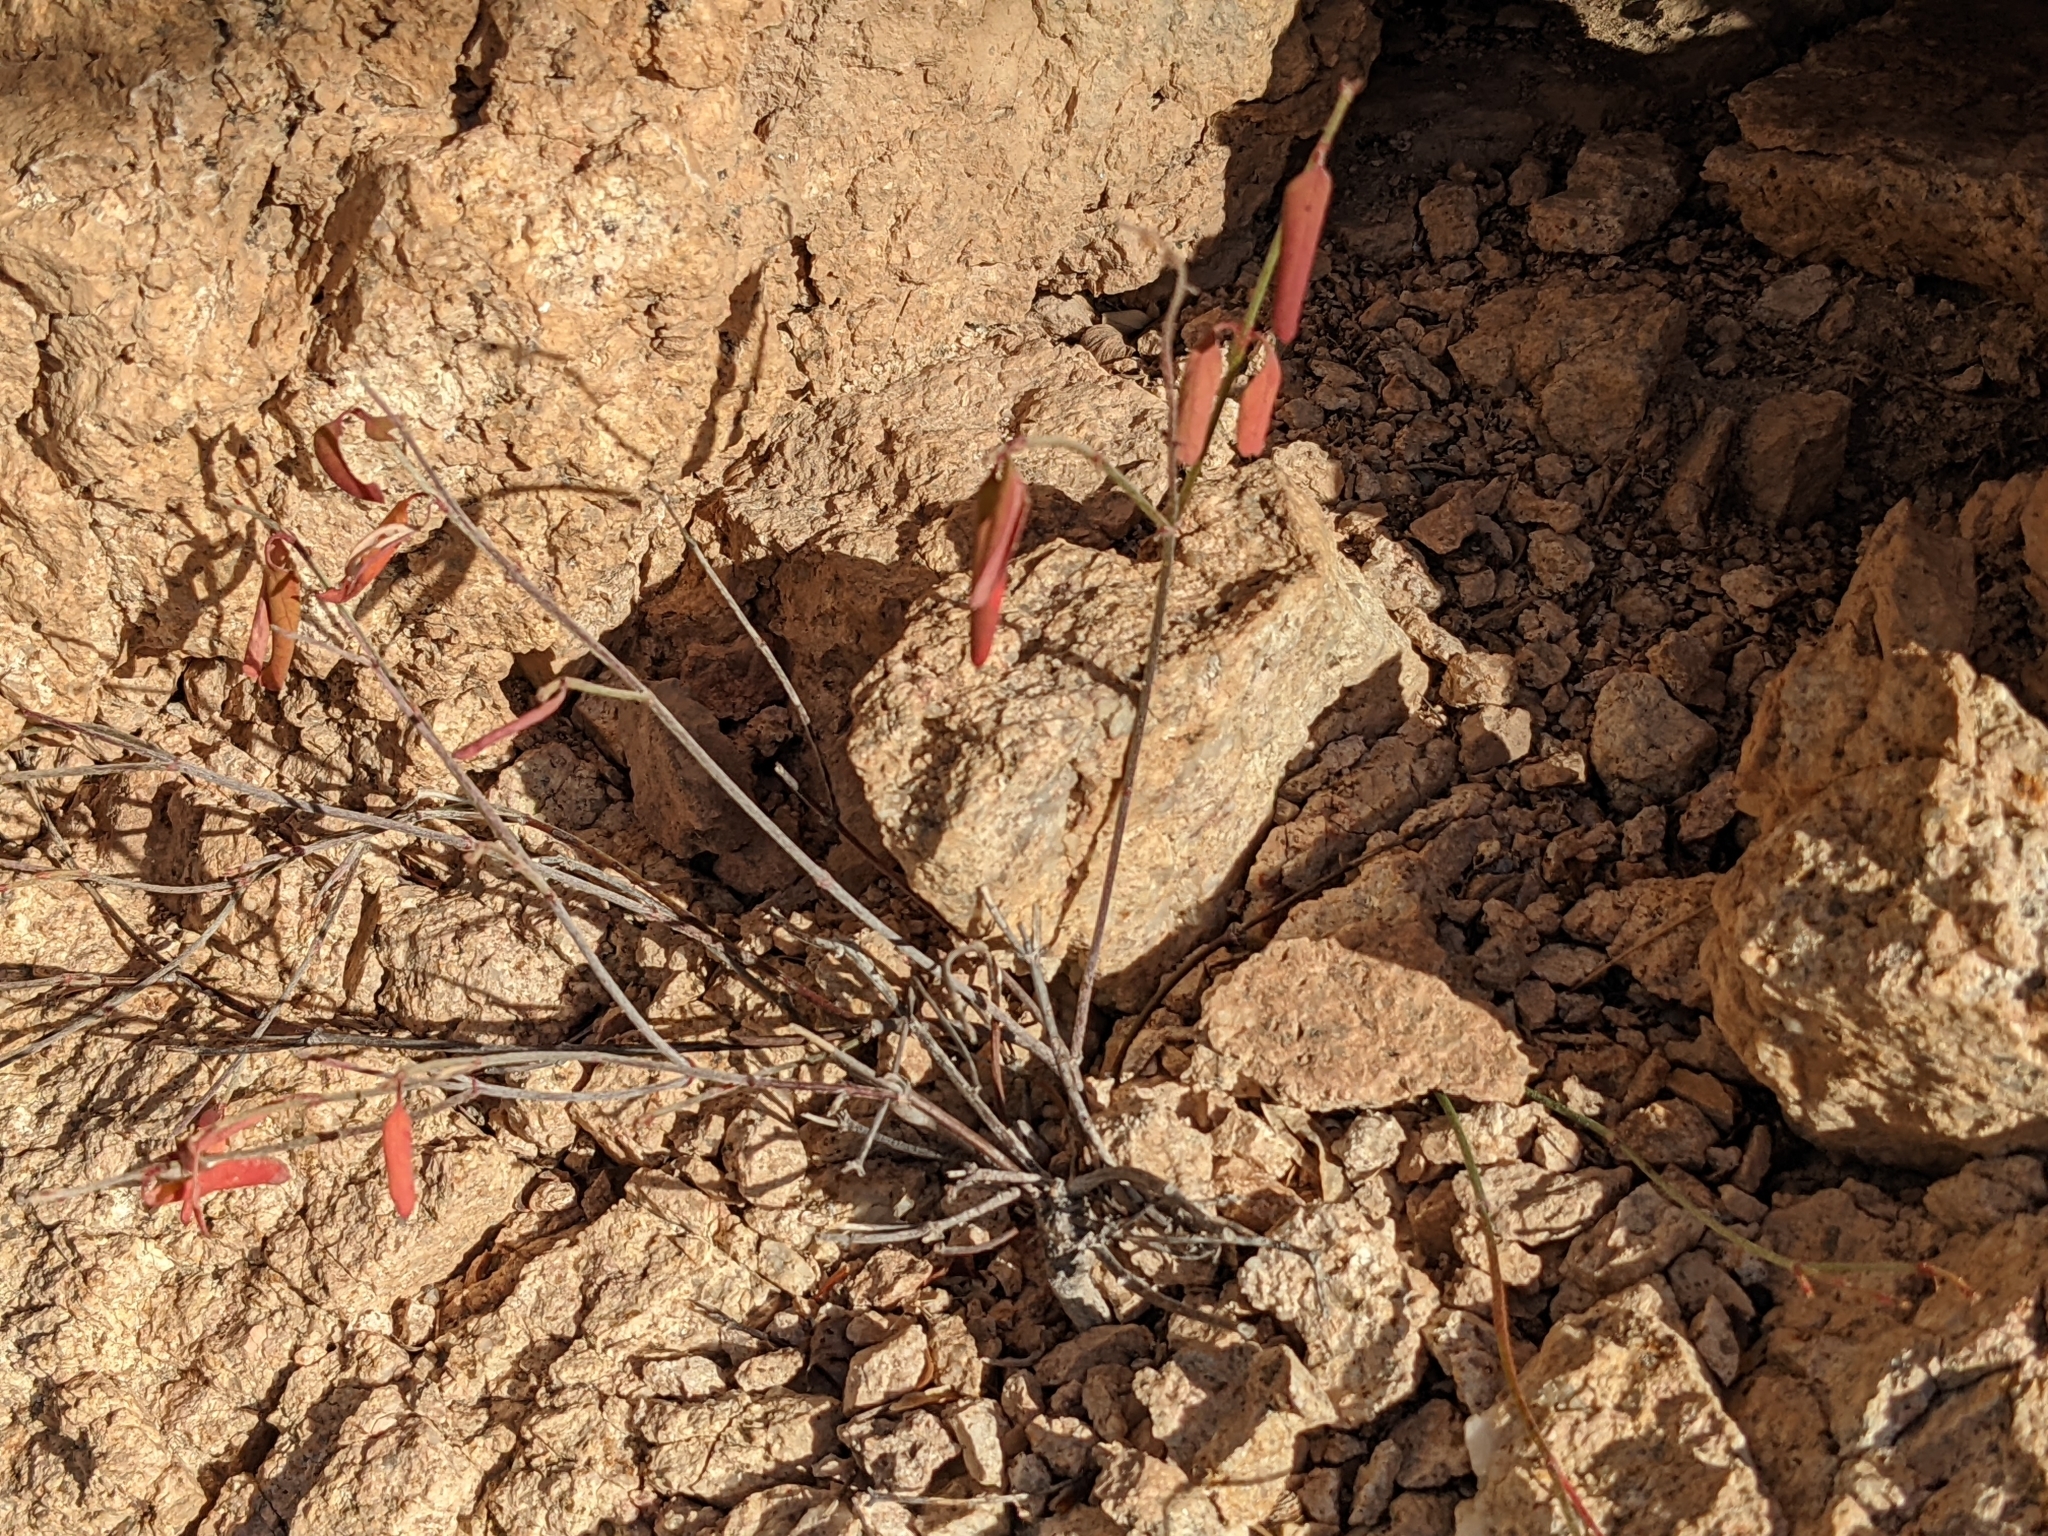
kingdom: Plantae
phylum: Tracheophyta
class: Magnoliopsida
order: Malpighiales
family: Malpighiaceae
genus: Galphimia
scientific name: Galphimia angustifolia
